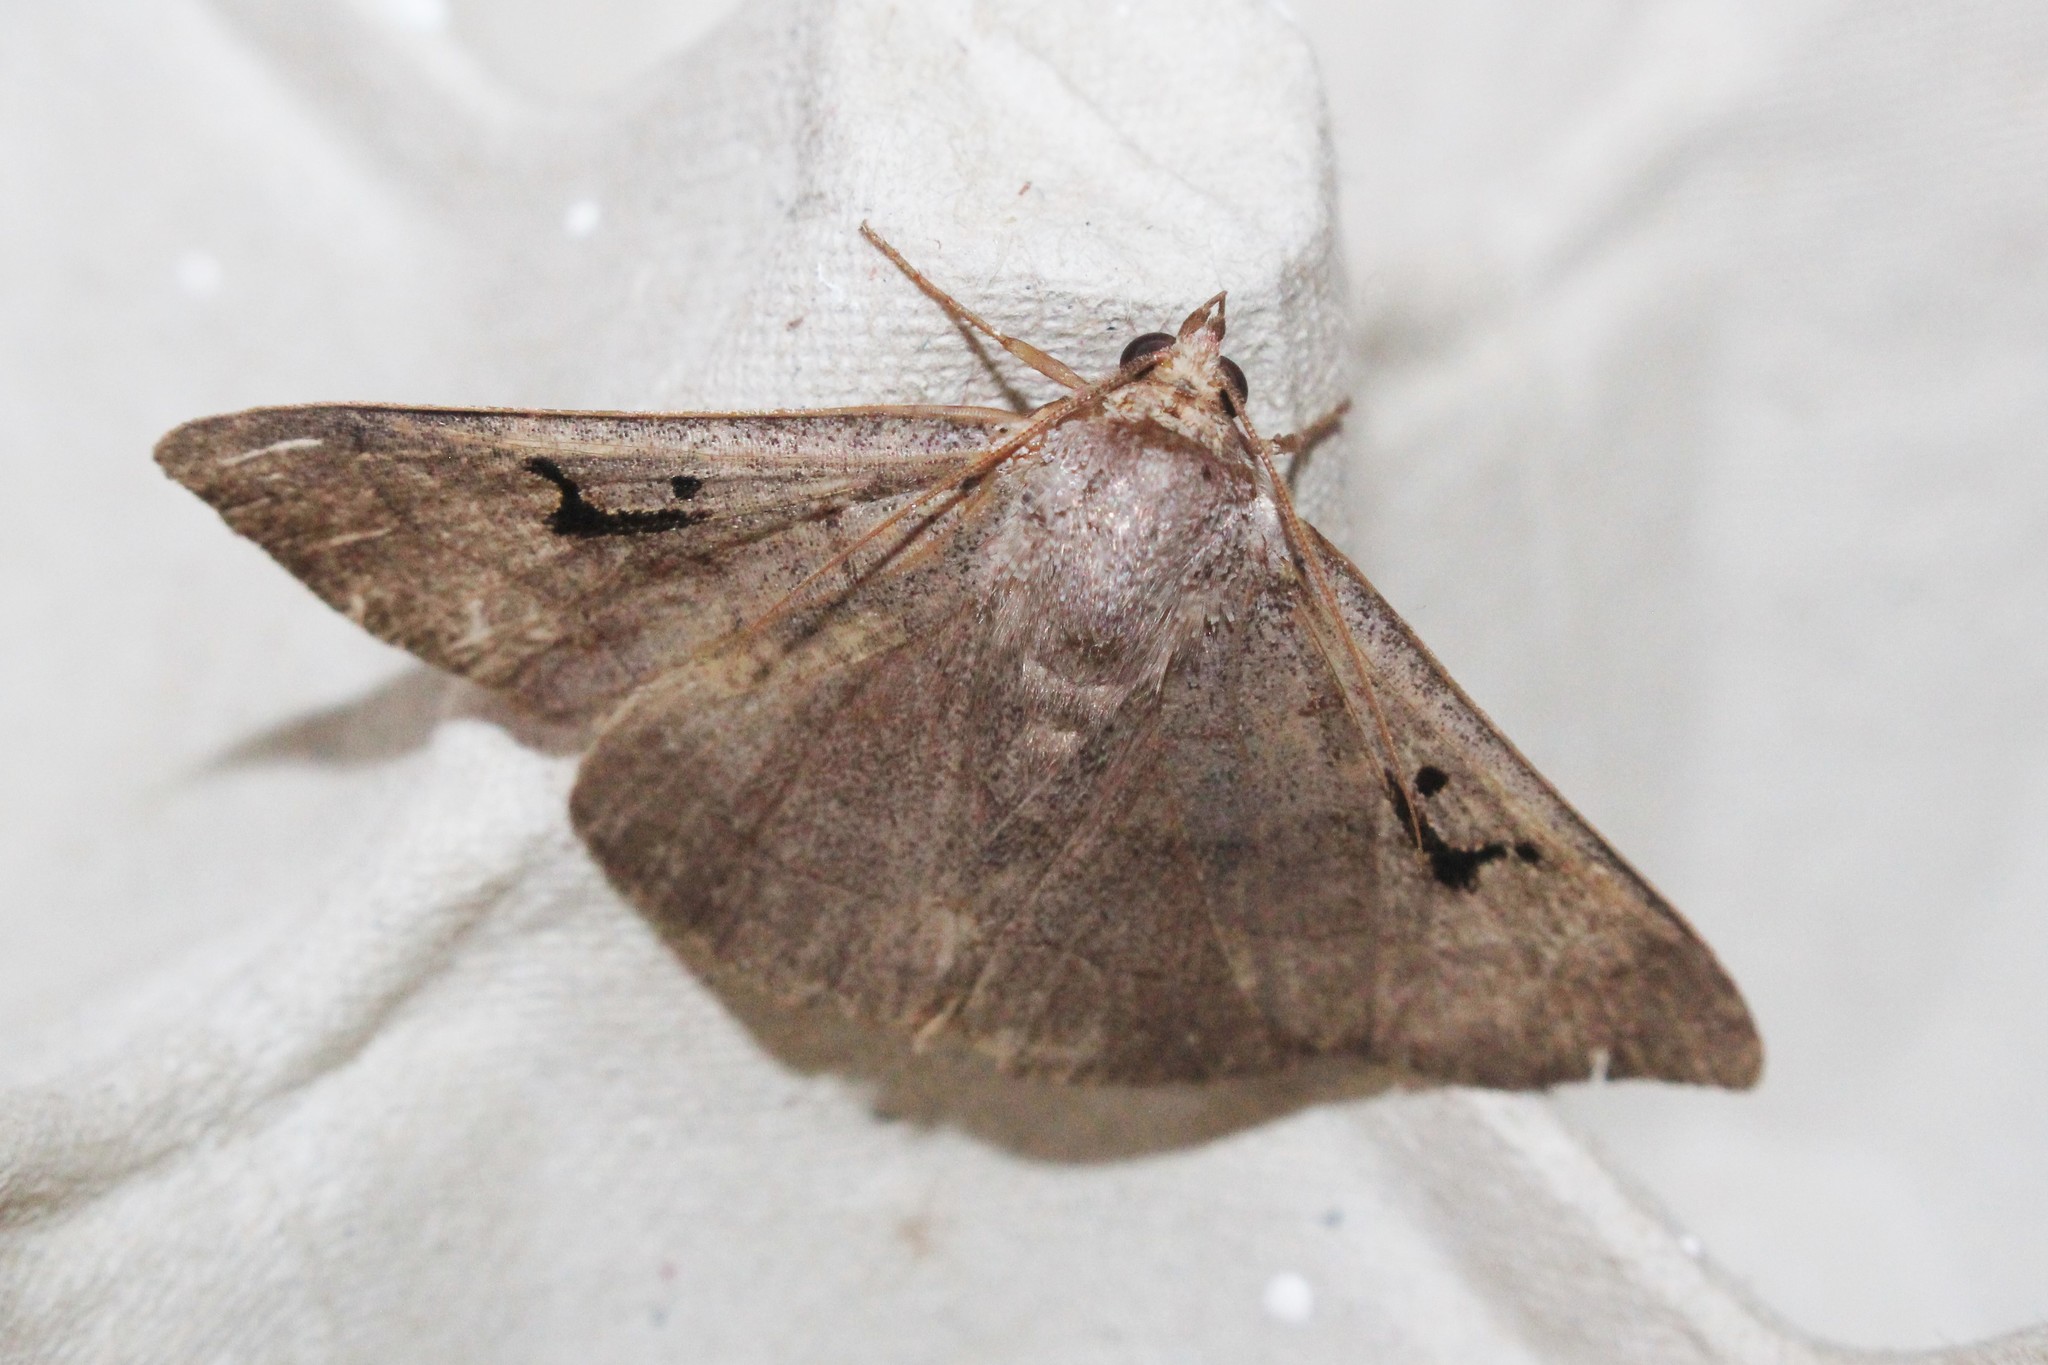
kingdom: Animalia
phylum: Arthropoda
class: Insecta
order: Lepidoptera
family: Erebidae
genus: Panopoda
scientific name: Panopoda carneicosta
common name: Brown panopoda moth
